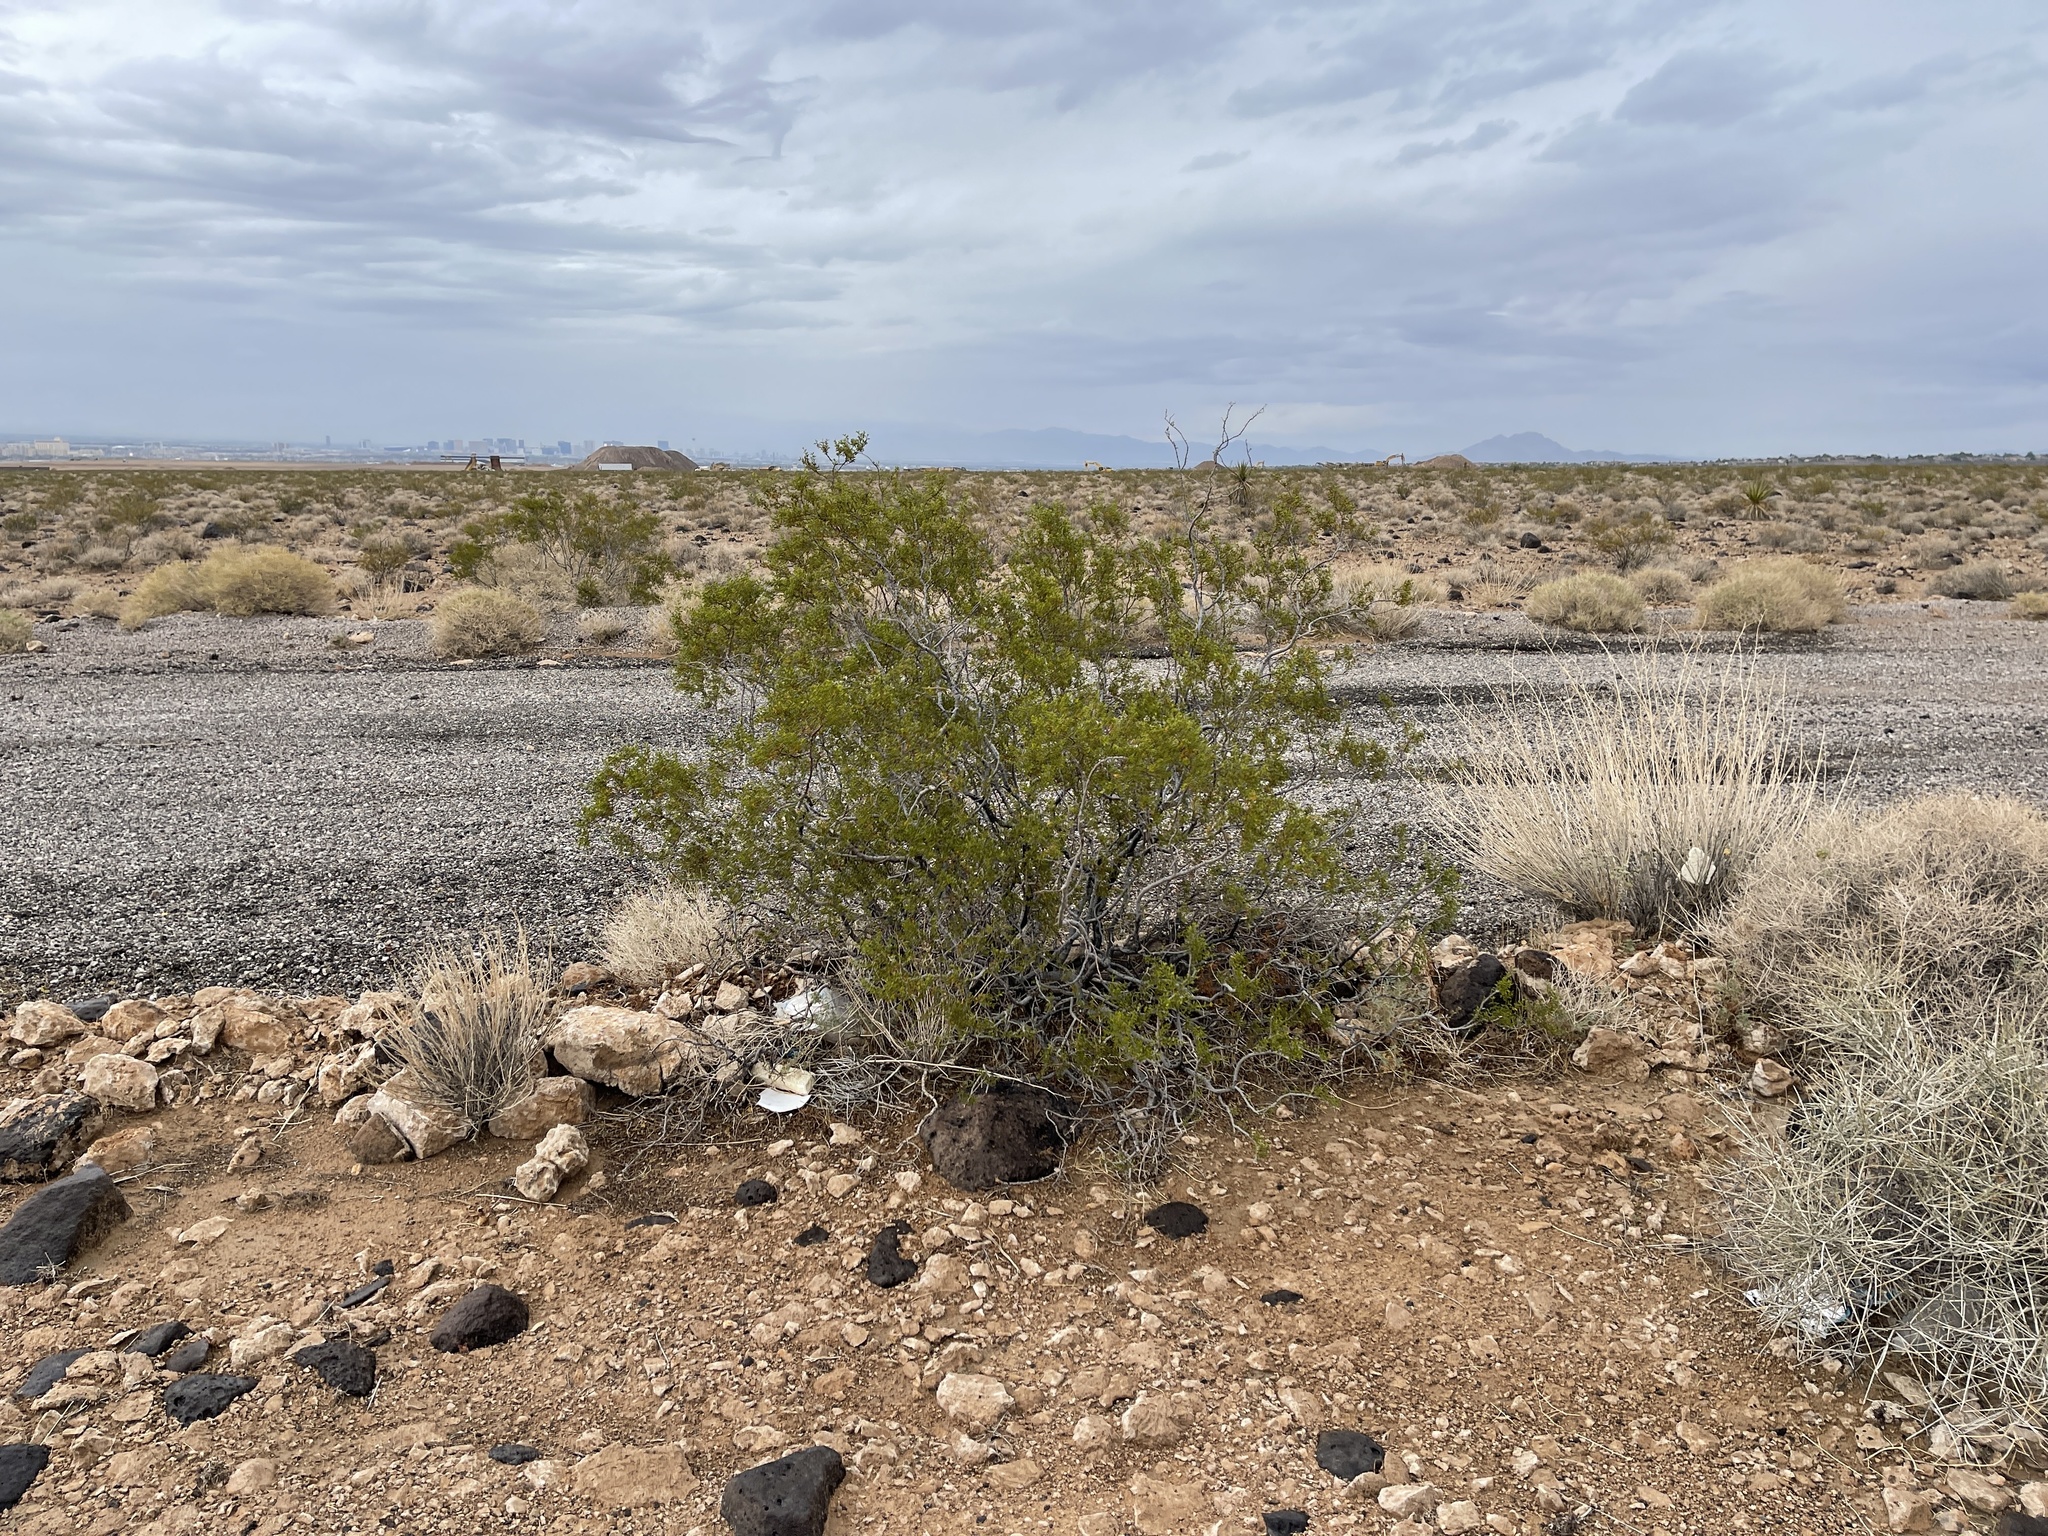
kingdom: Plantae
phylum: Tracheophyta
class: Magnoliopsida
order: Zygophyllales
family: Zygophyllaceae
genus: Larrea
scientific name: Larrea tridentata
